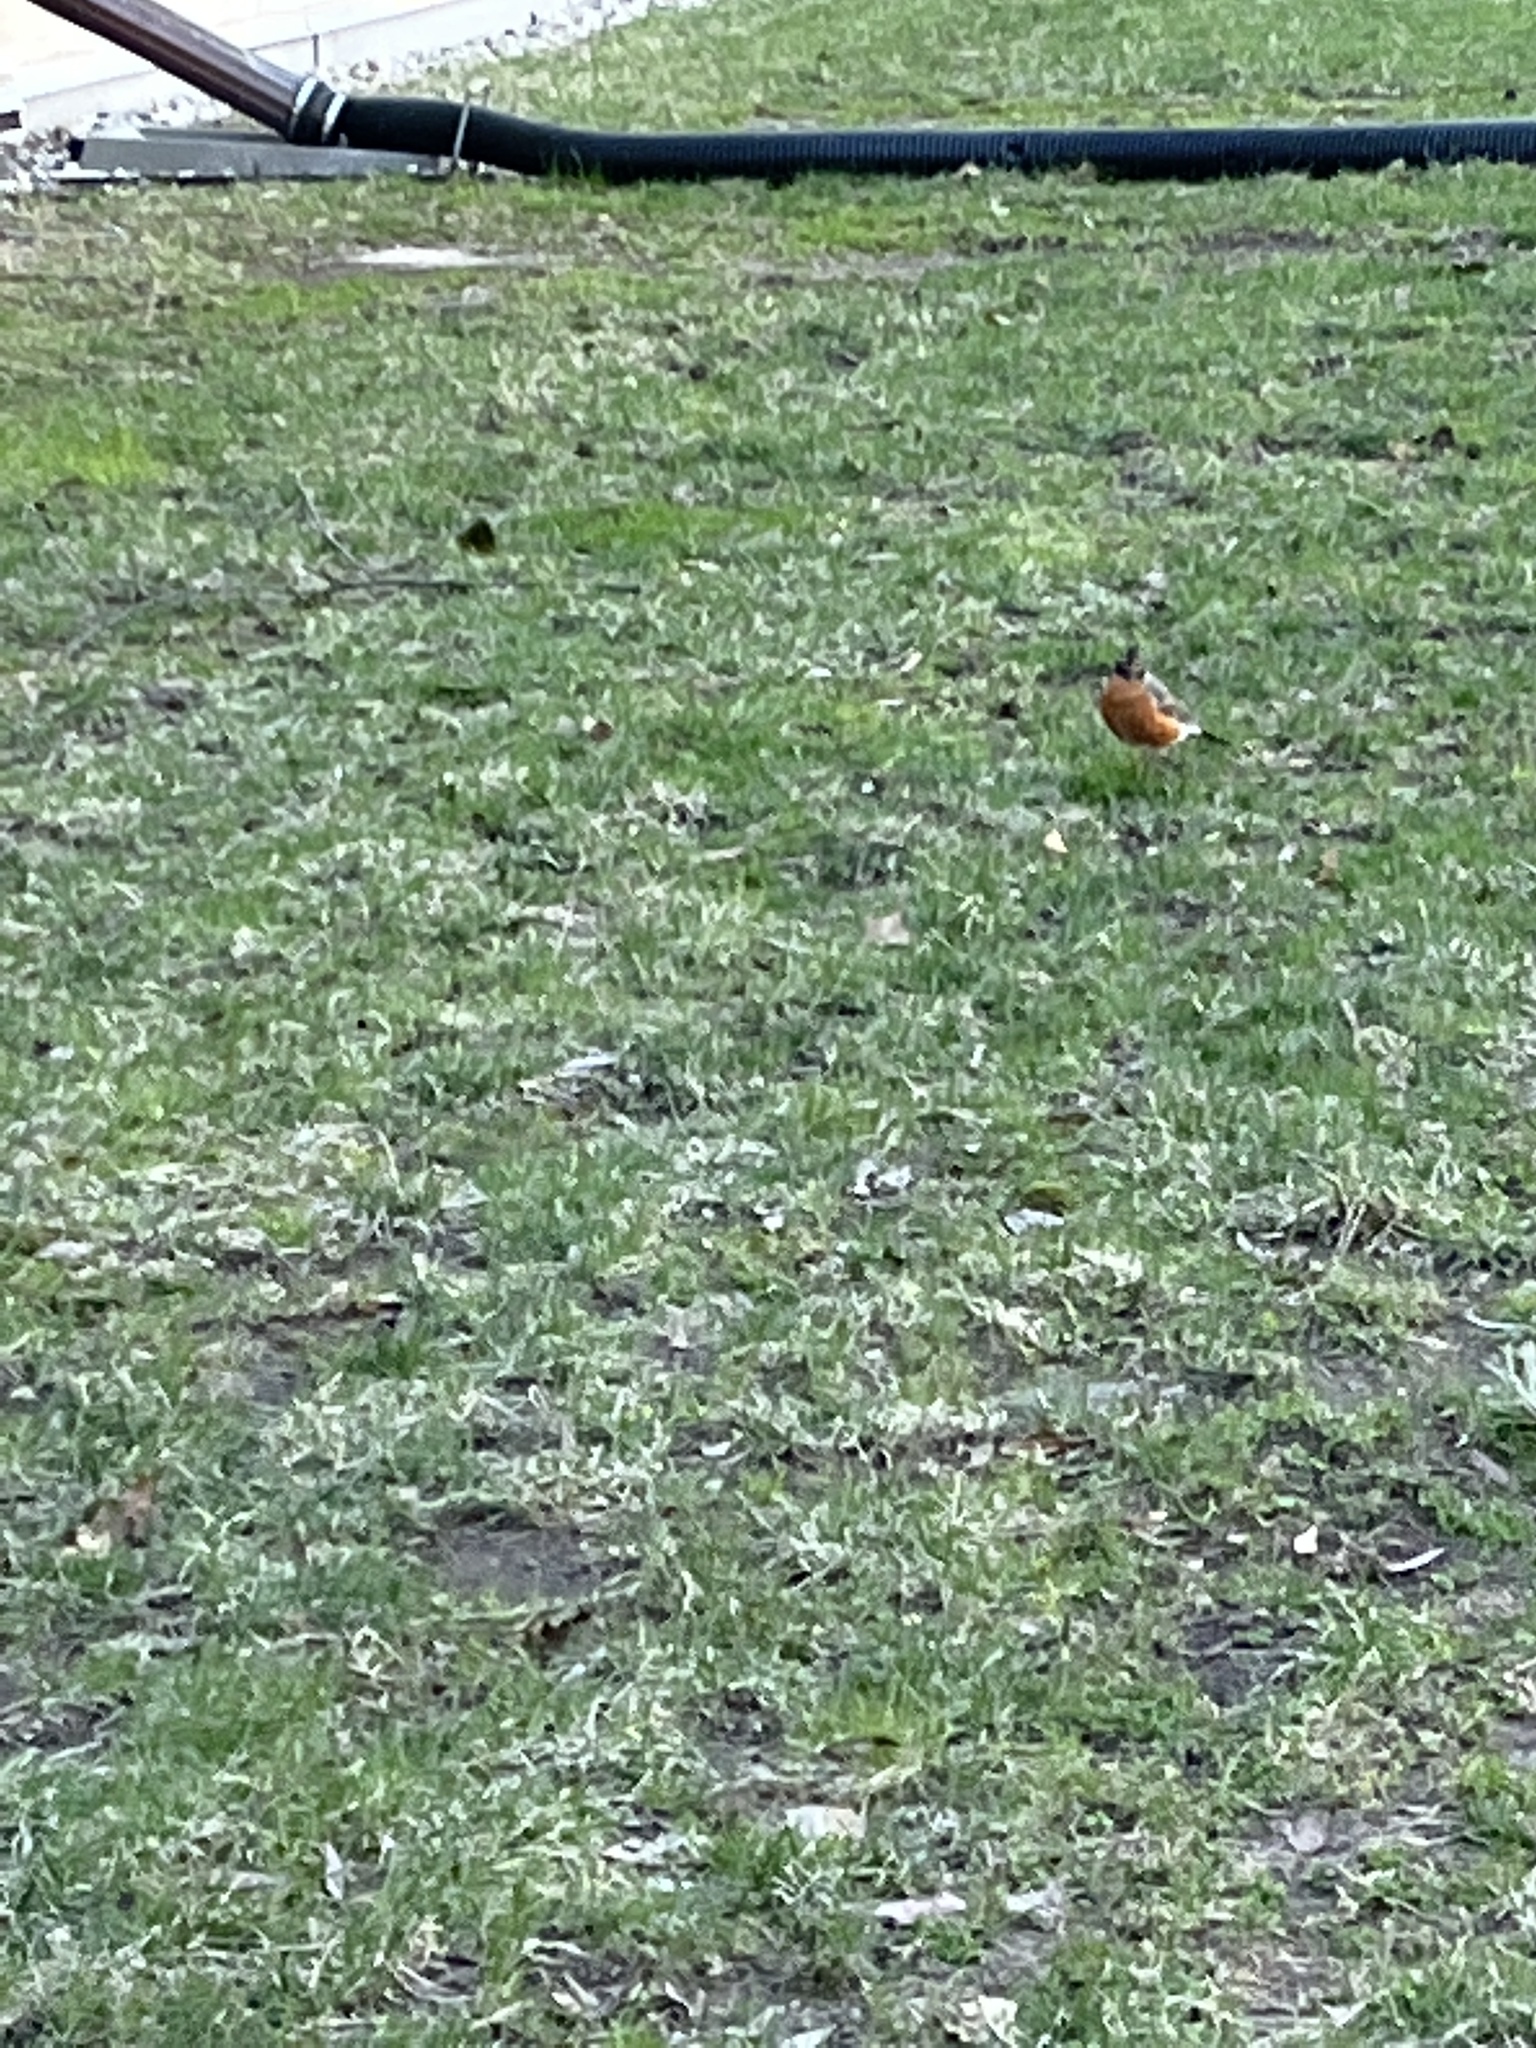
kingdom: Animalia
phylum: Chordata
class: Aves
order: Passeriformes
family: Turdidae
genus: Turdus
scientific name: Turdus migratorius
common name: American robin
